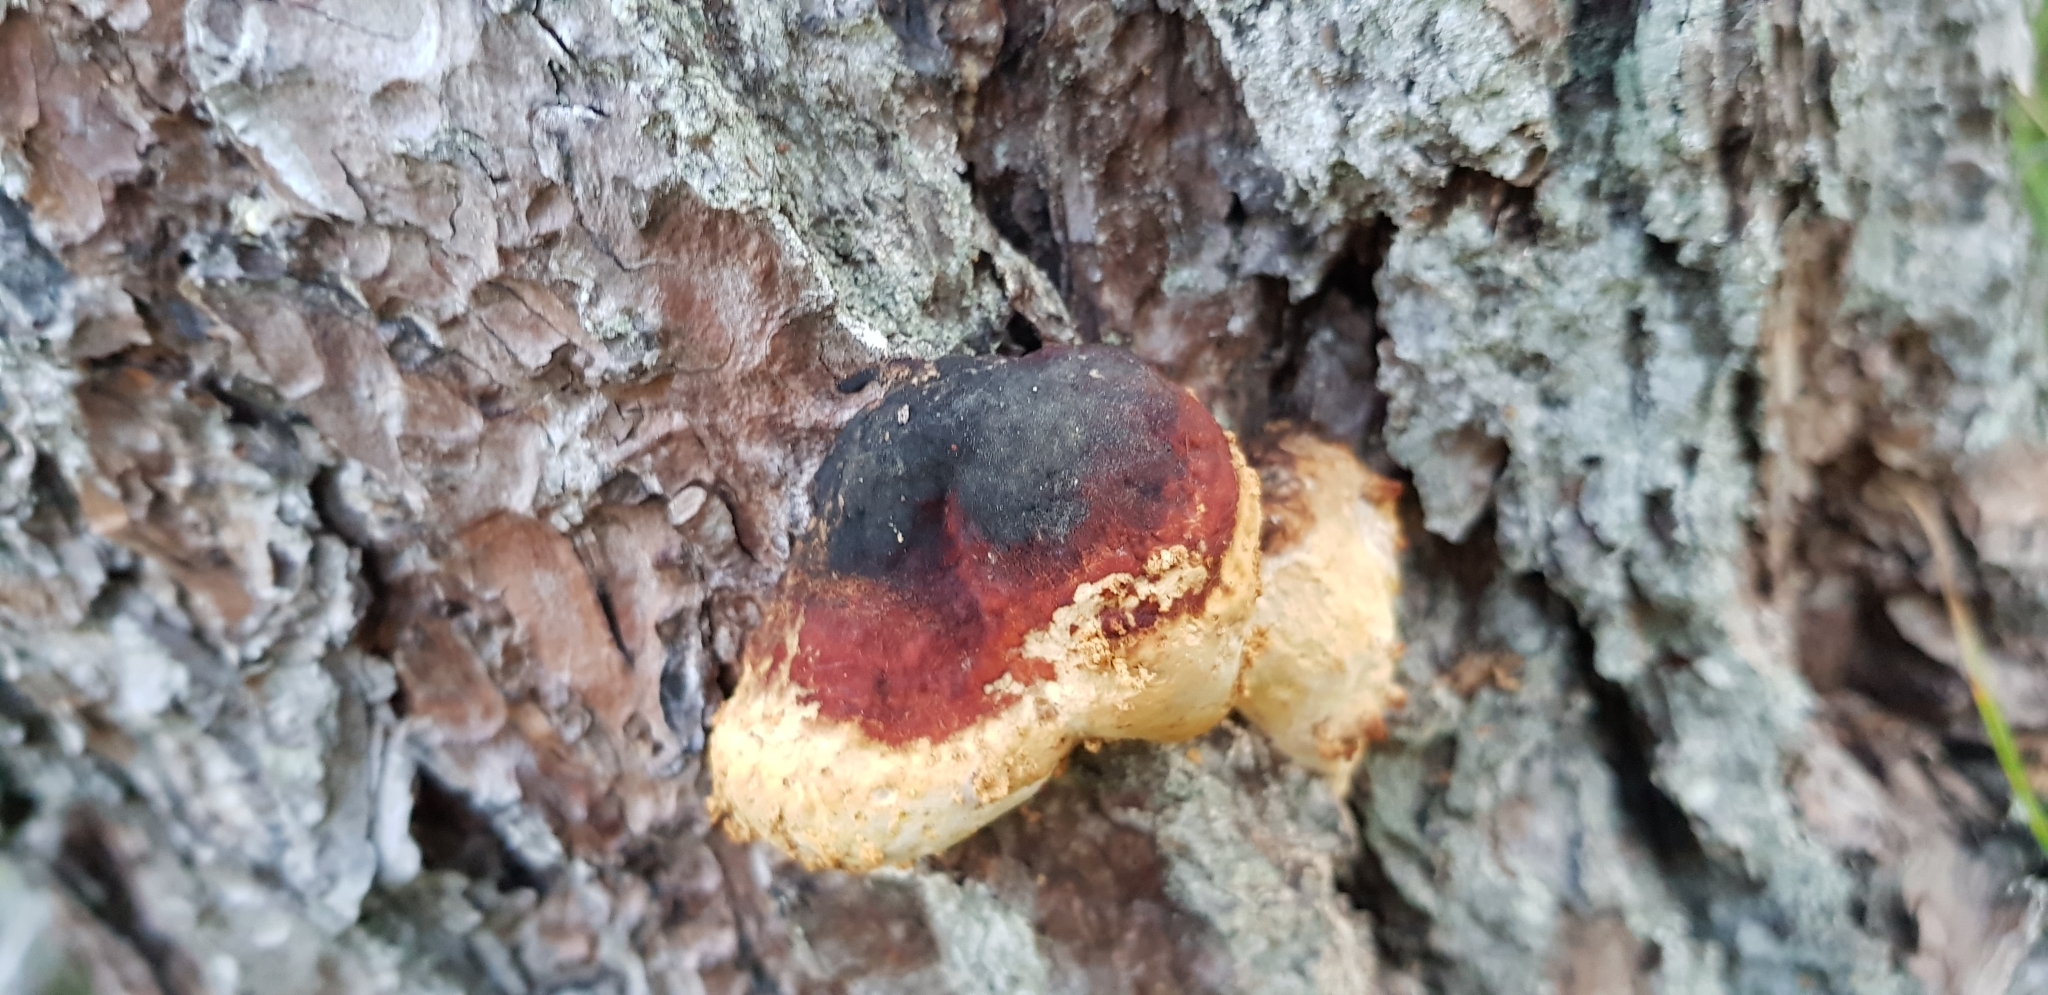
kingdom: Fungi
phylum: Basidiomycota
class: Agaricomycetes
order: Polyporales
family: Fomitopsidaceae
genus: Fomitopsis
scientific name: Fomitopsis pinicola
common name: Red-belted bracket
